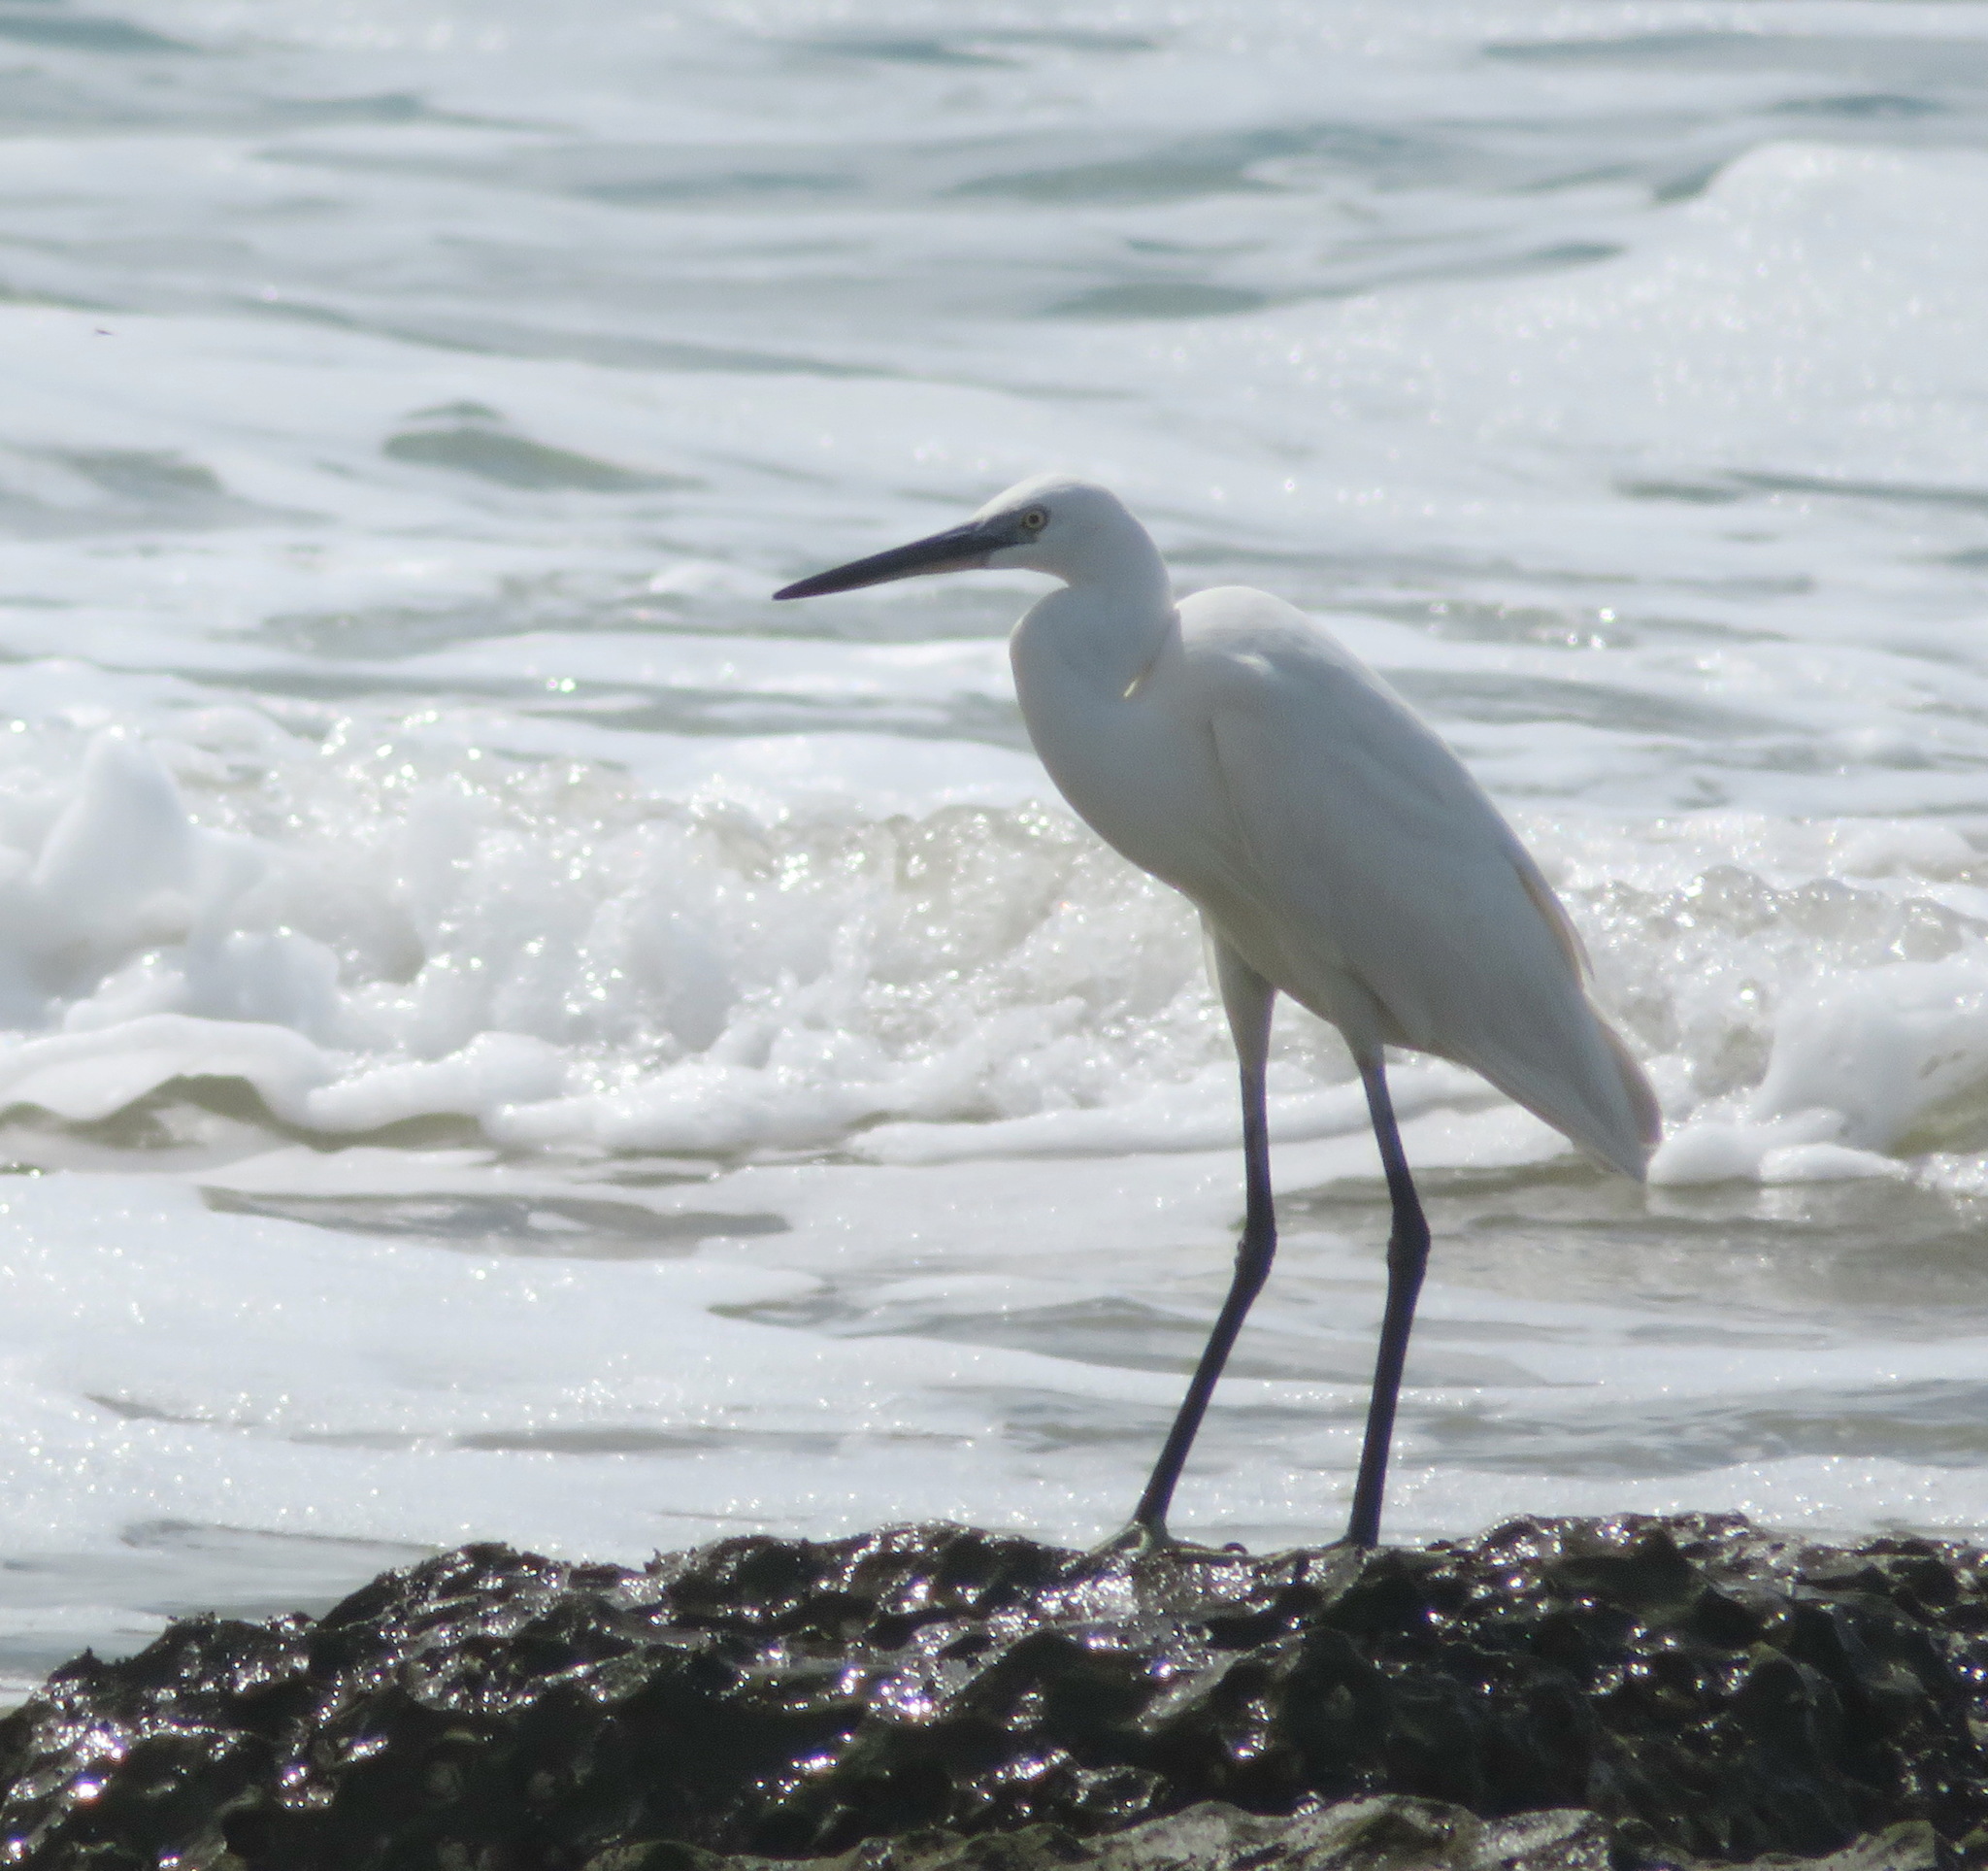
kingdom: Animalia
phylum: Chordata
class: Aves
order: Pelecaniformes
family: Ardeidae
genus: Egretta
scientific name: Egretta garzetta
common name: Little egret
